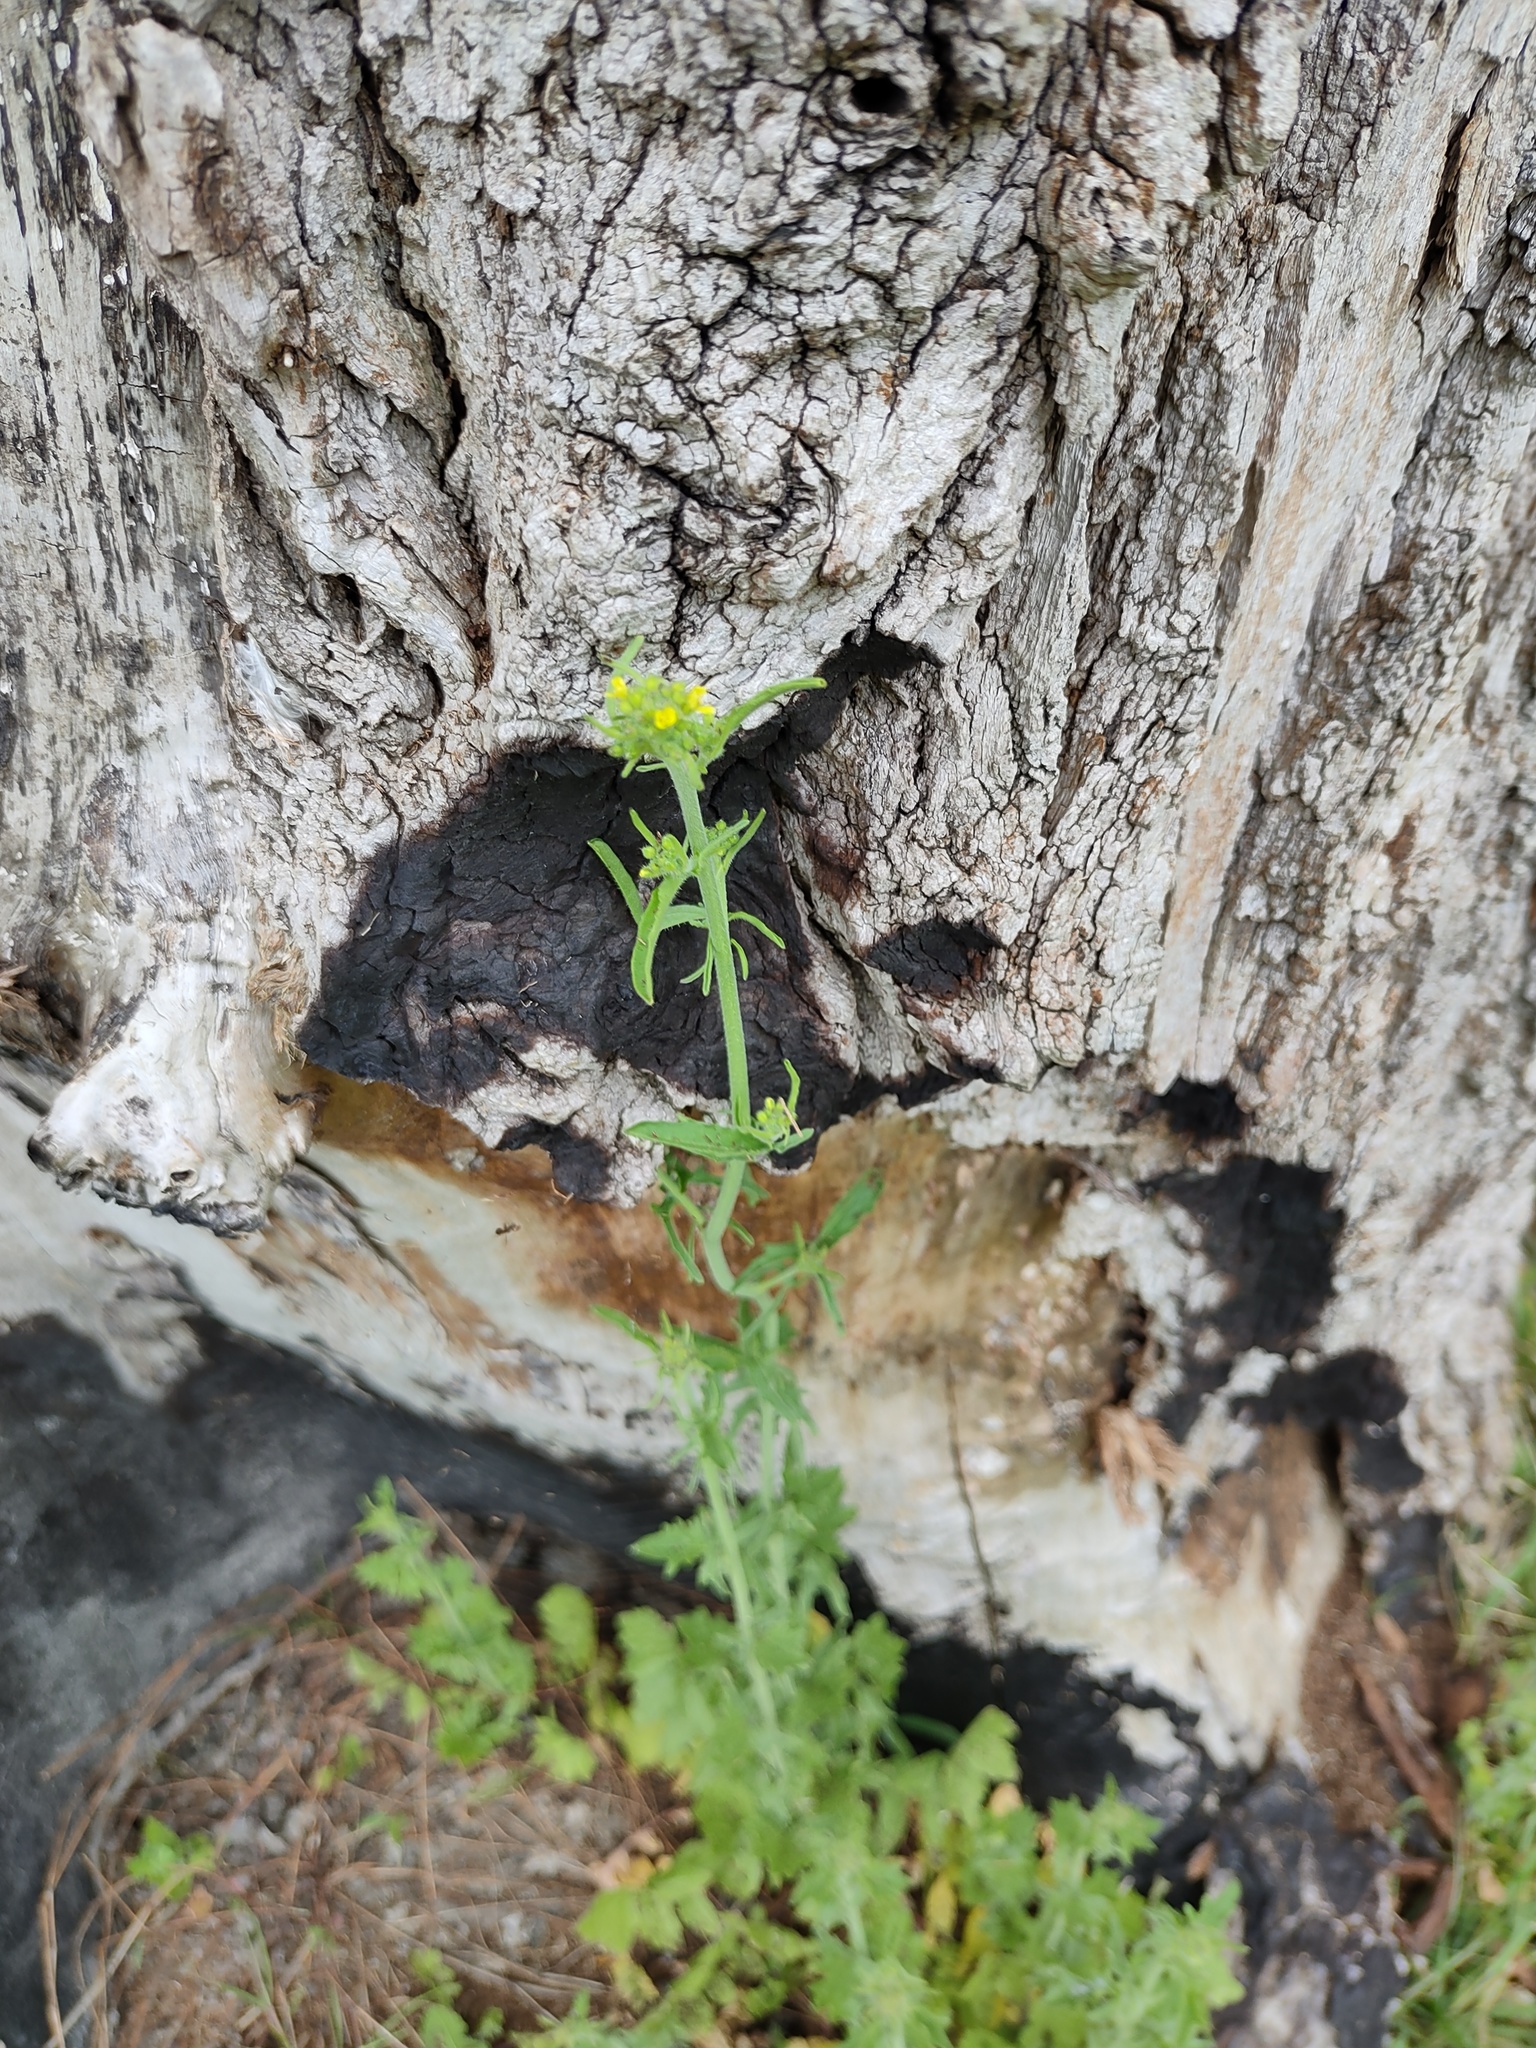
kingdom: Plantae
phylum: Tracheophyta
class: Magnoliopsida
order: Brassicales
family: Brassicaceae
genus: Sisymbrium
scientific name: Sisymbrium officinale
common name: Hedge mustard
